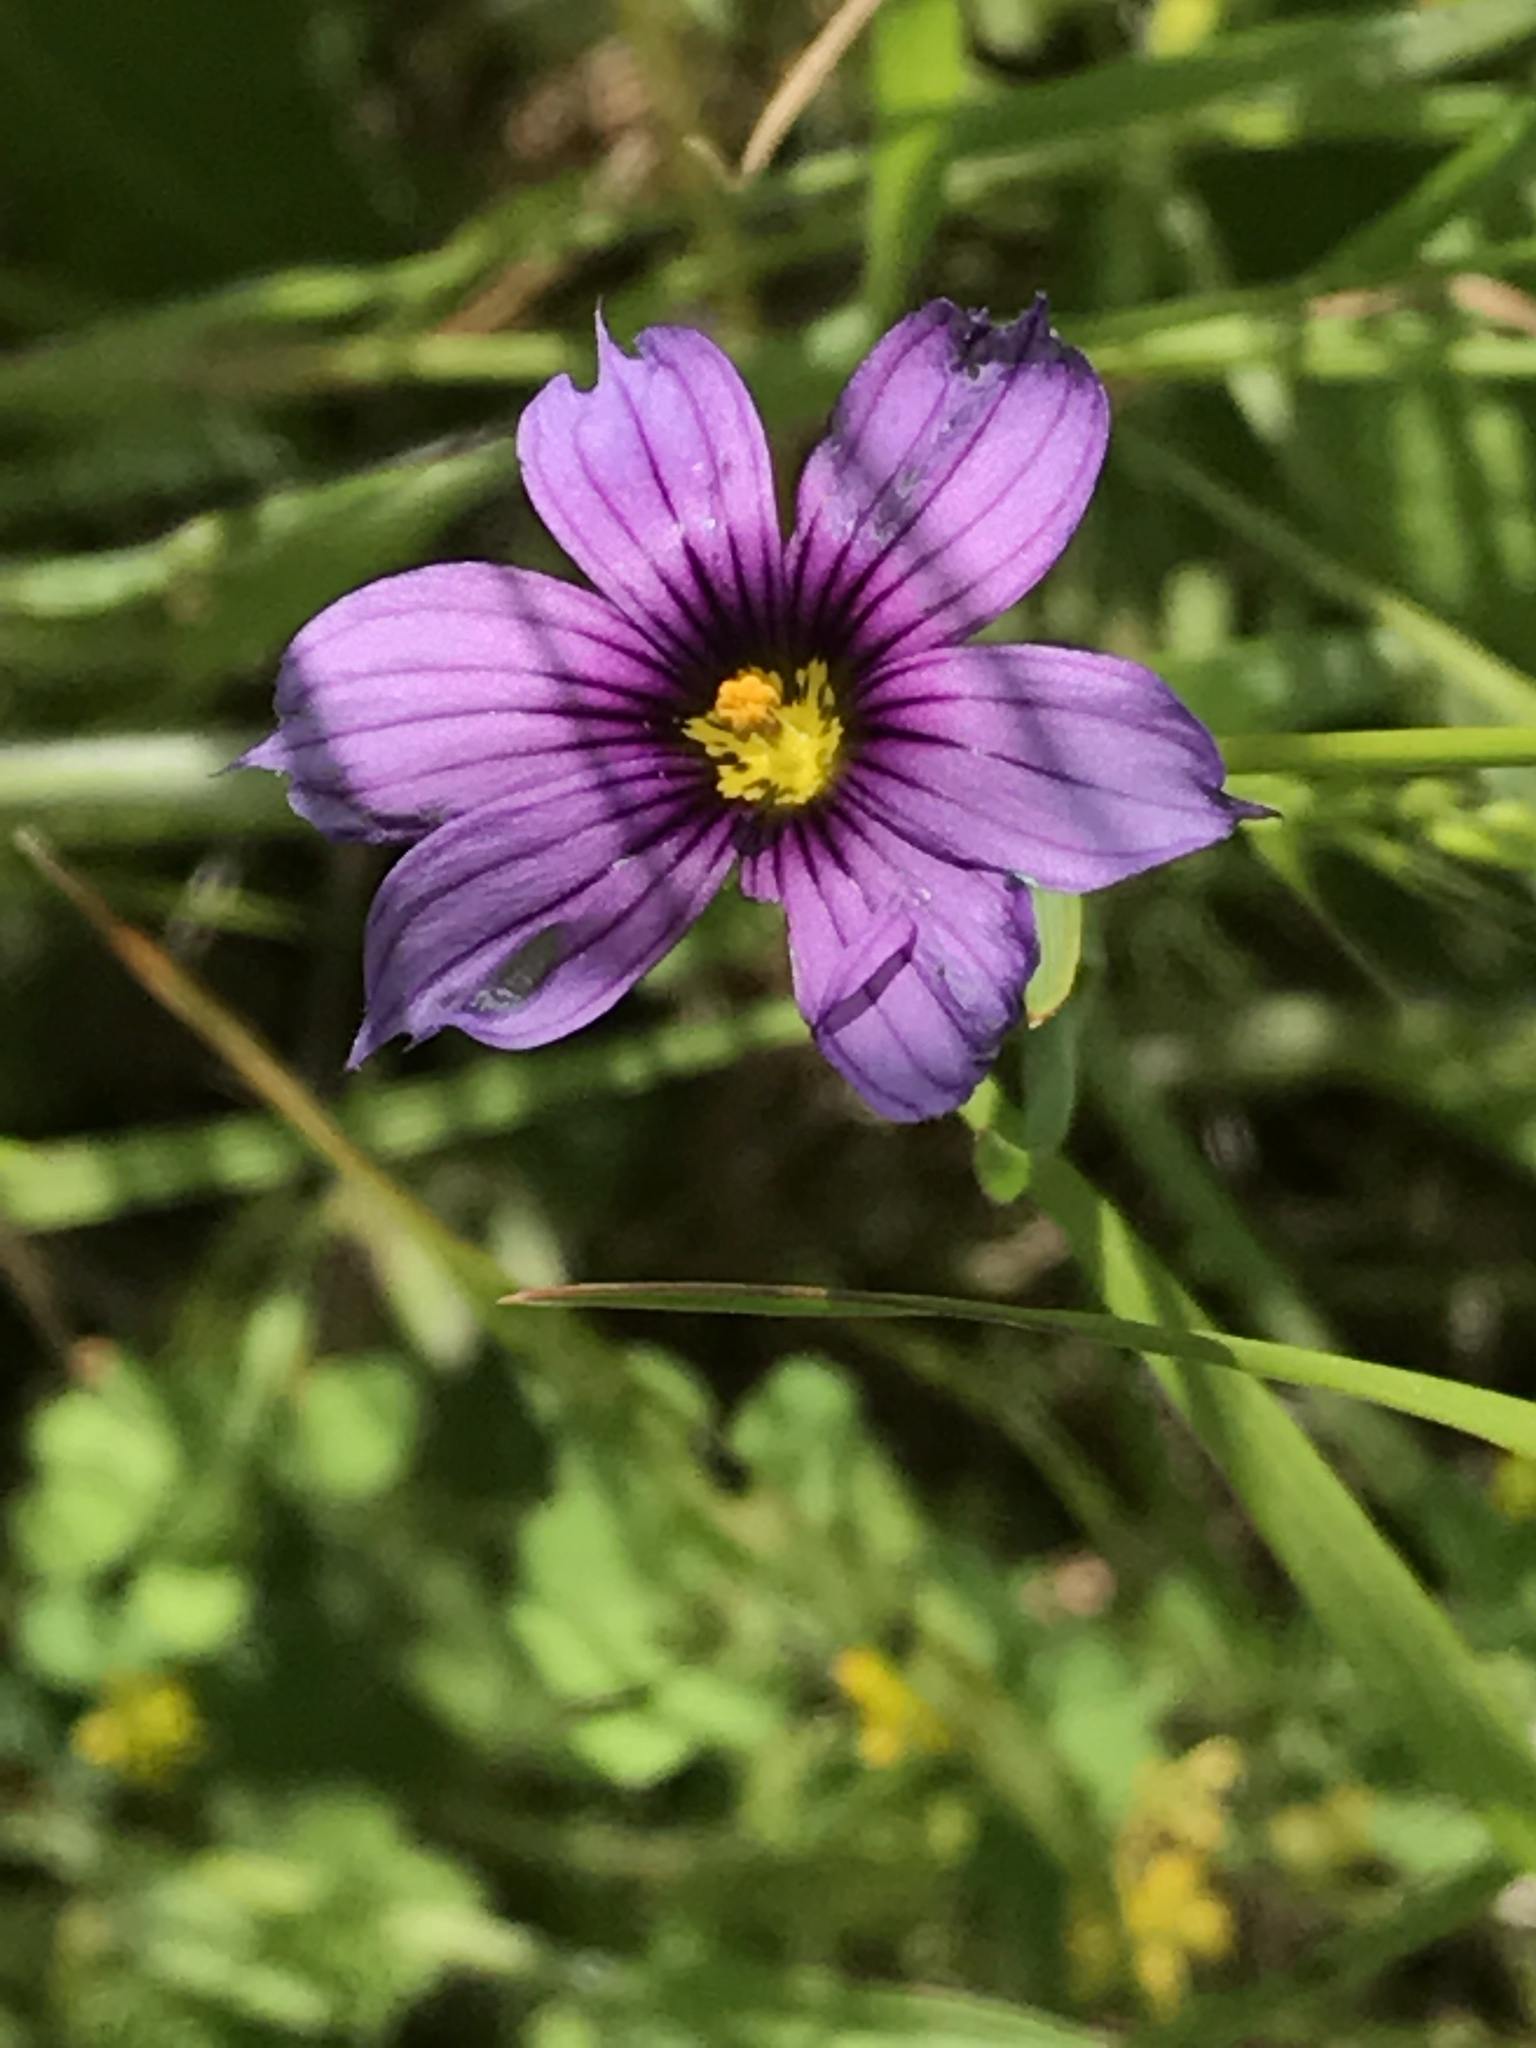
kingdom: Plantae
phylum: Tracheophyta
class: Liliopsida
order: Asparagales
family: Iridaceae
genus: Sisyrinchium
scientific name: Sisyrinchium bellum
